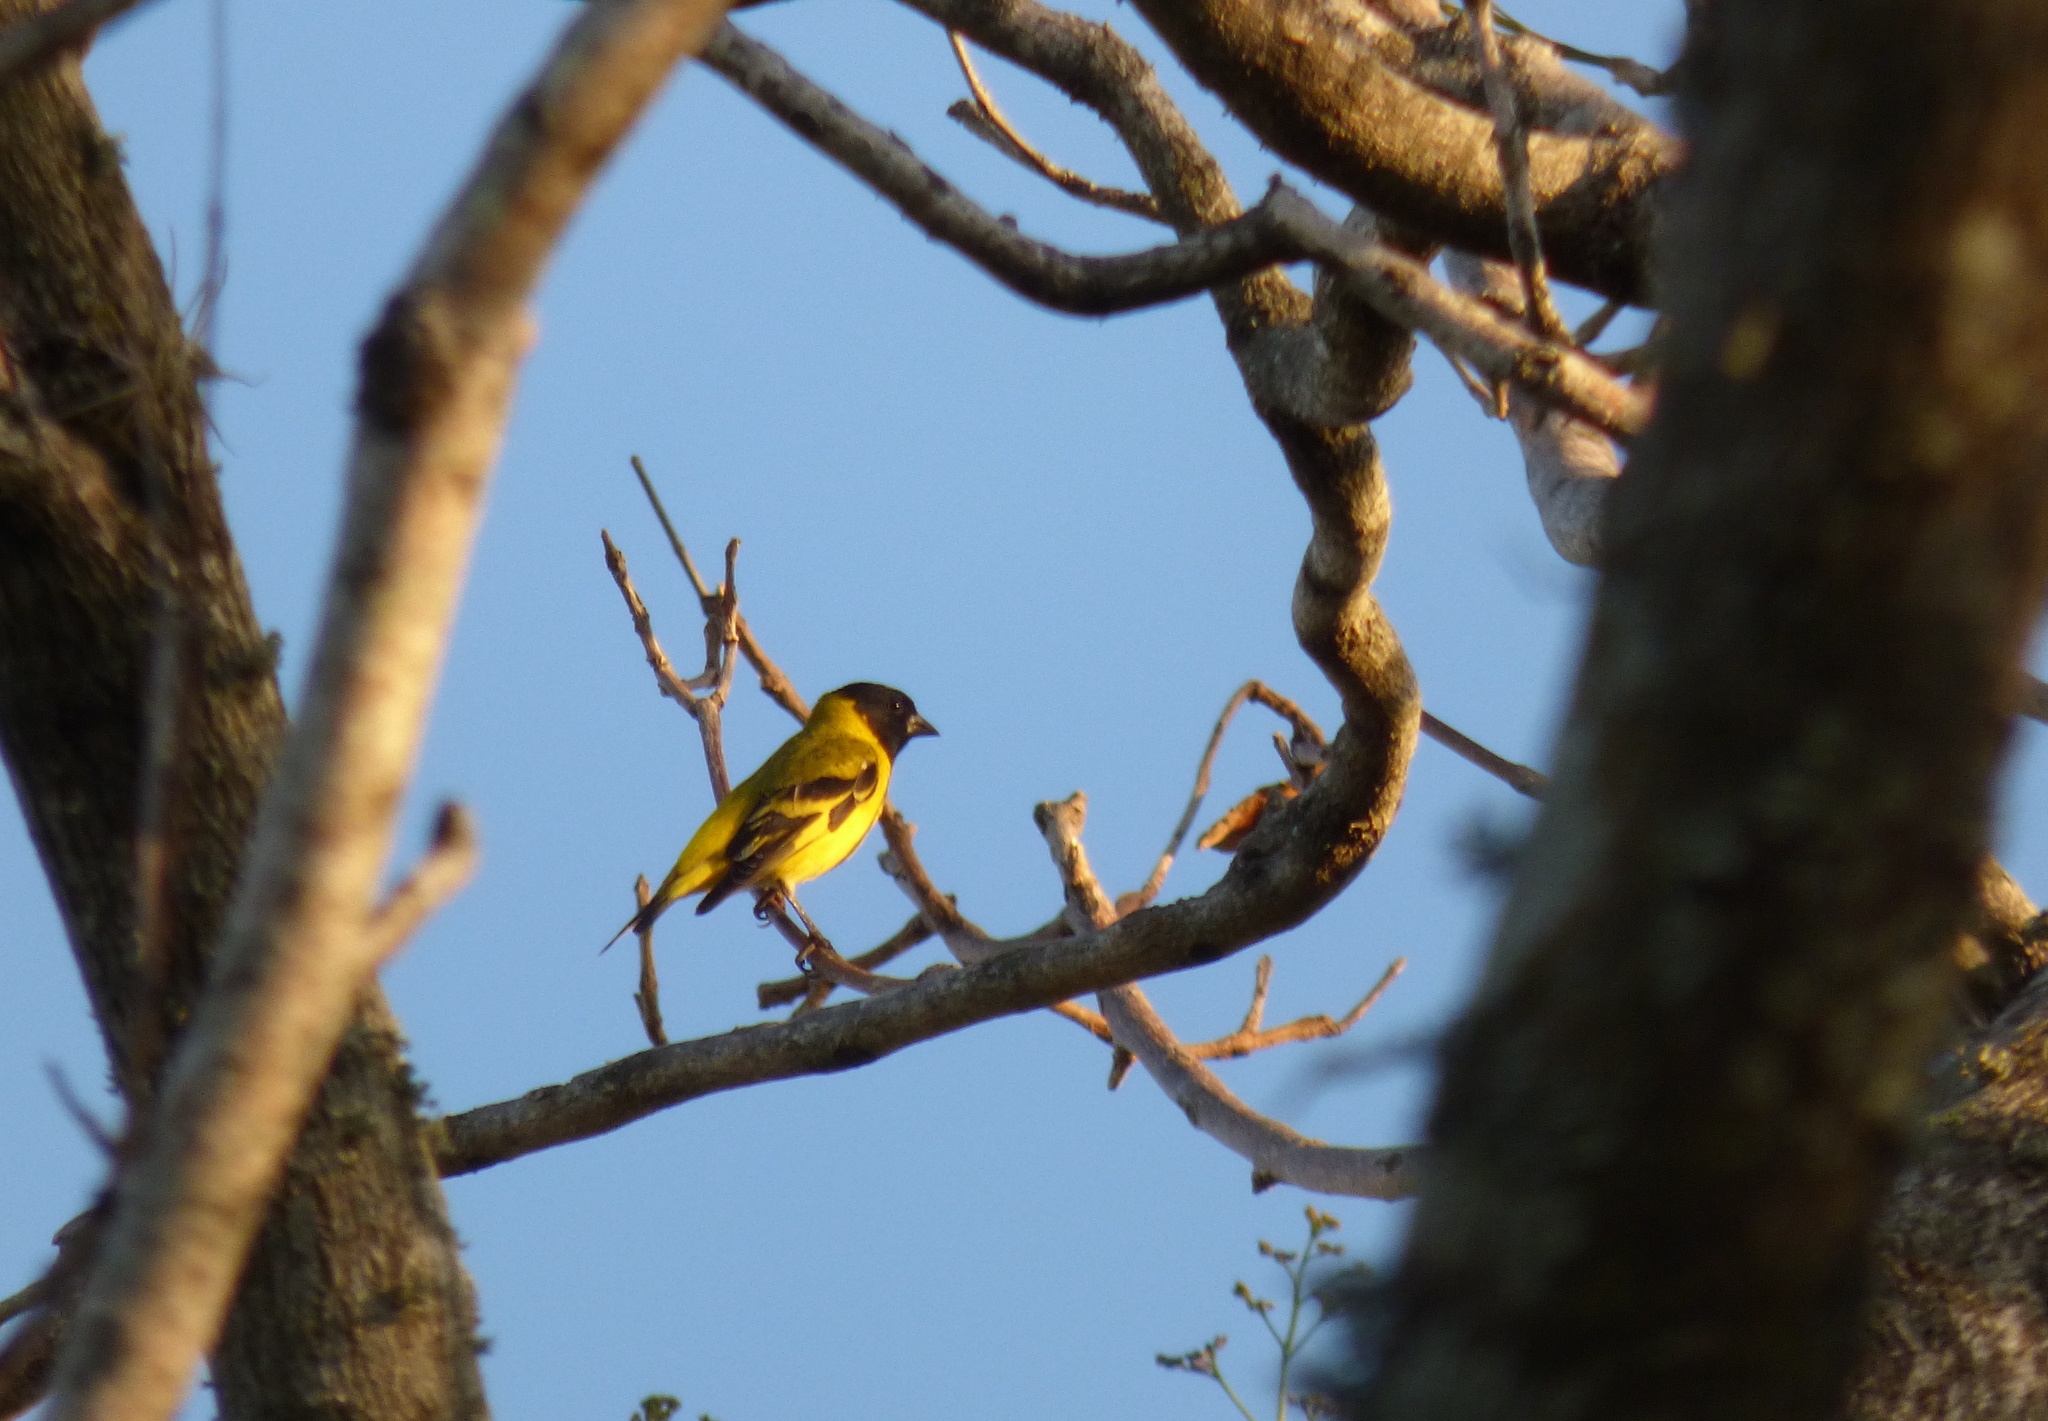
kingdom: Animalia
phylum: Chordata
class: Aves
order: Passeriformes
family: Fringillidae
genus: Spinus
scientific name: Spinus magellanicus
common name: Hooded siskin
